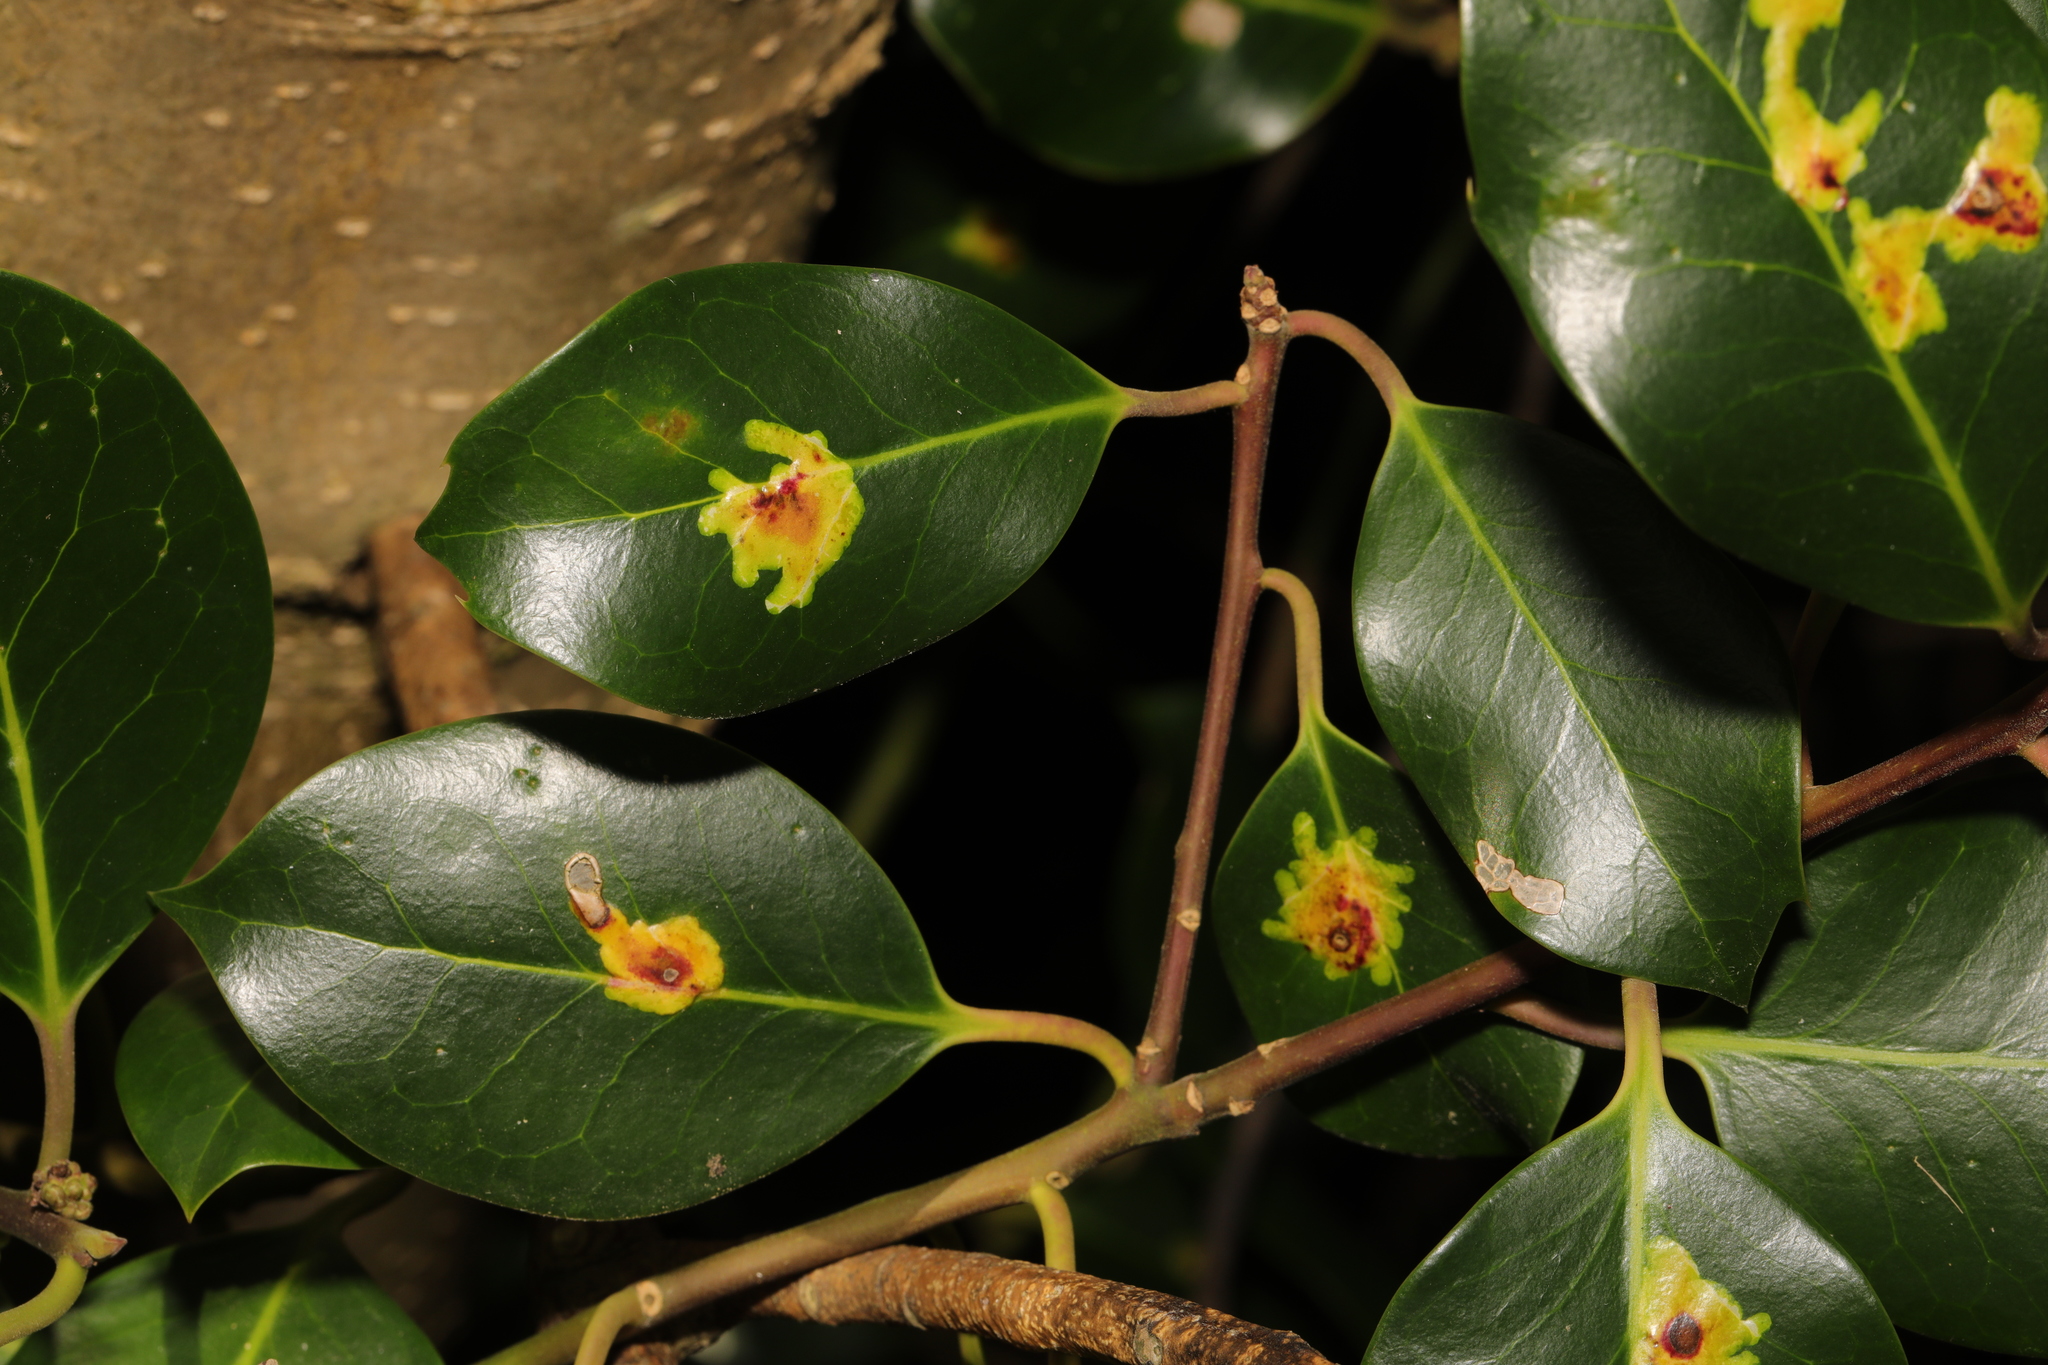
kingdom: Animalia
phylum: Arthropoda
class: Insecta
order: Diptera
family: Agromyzidae
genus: Phytomyza
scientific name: Phytomyza ilicis
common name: Holly leafminer
